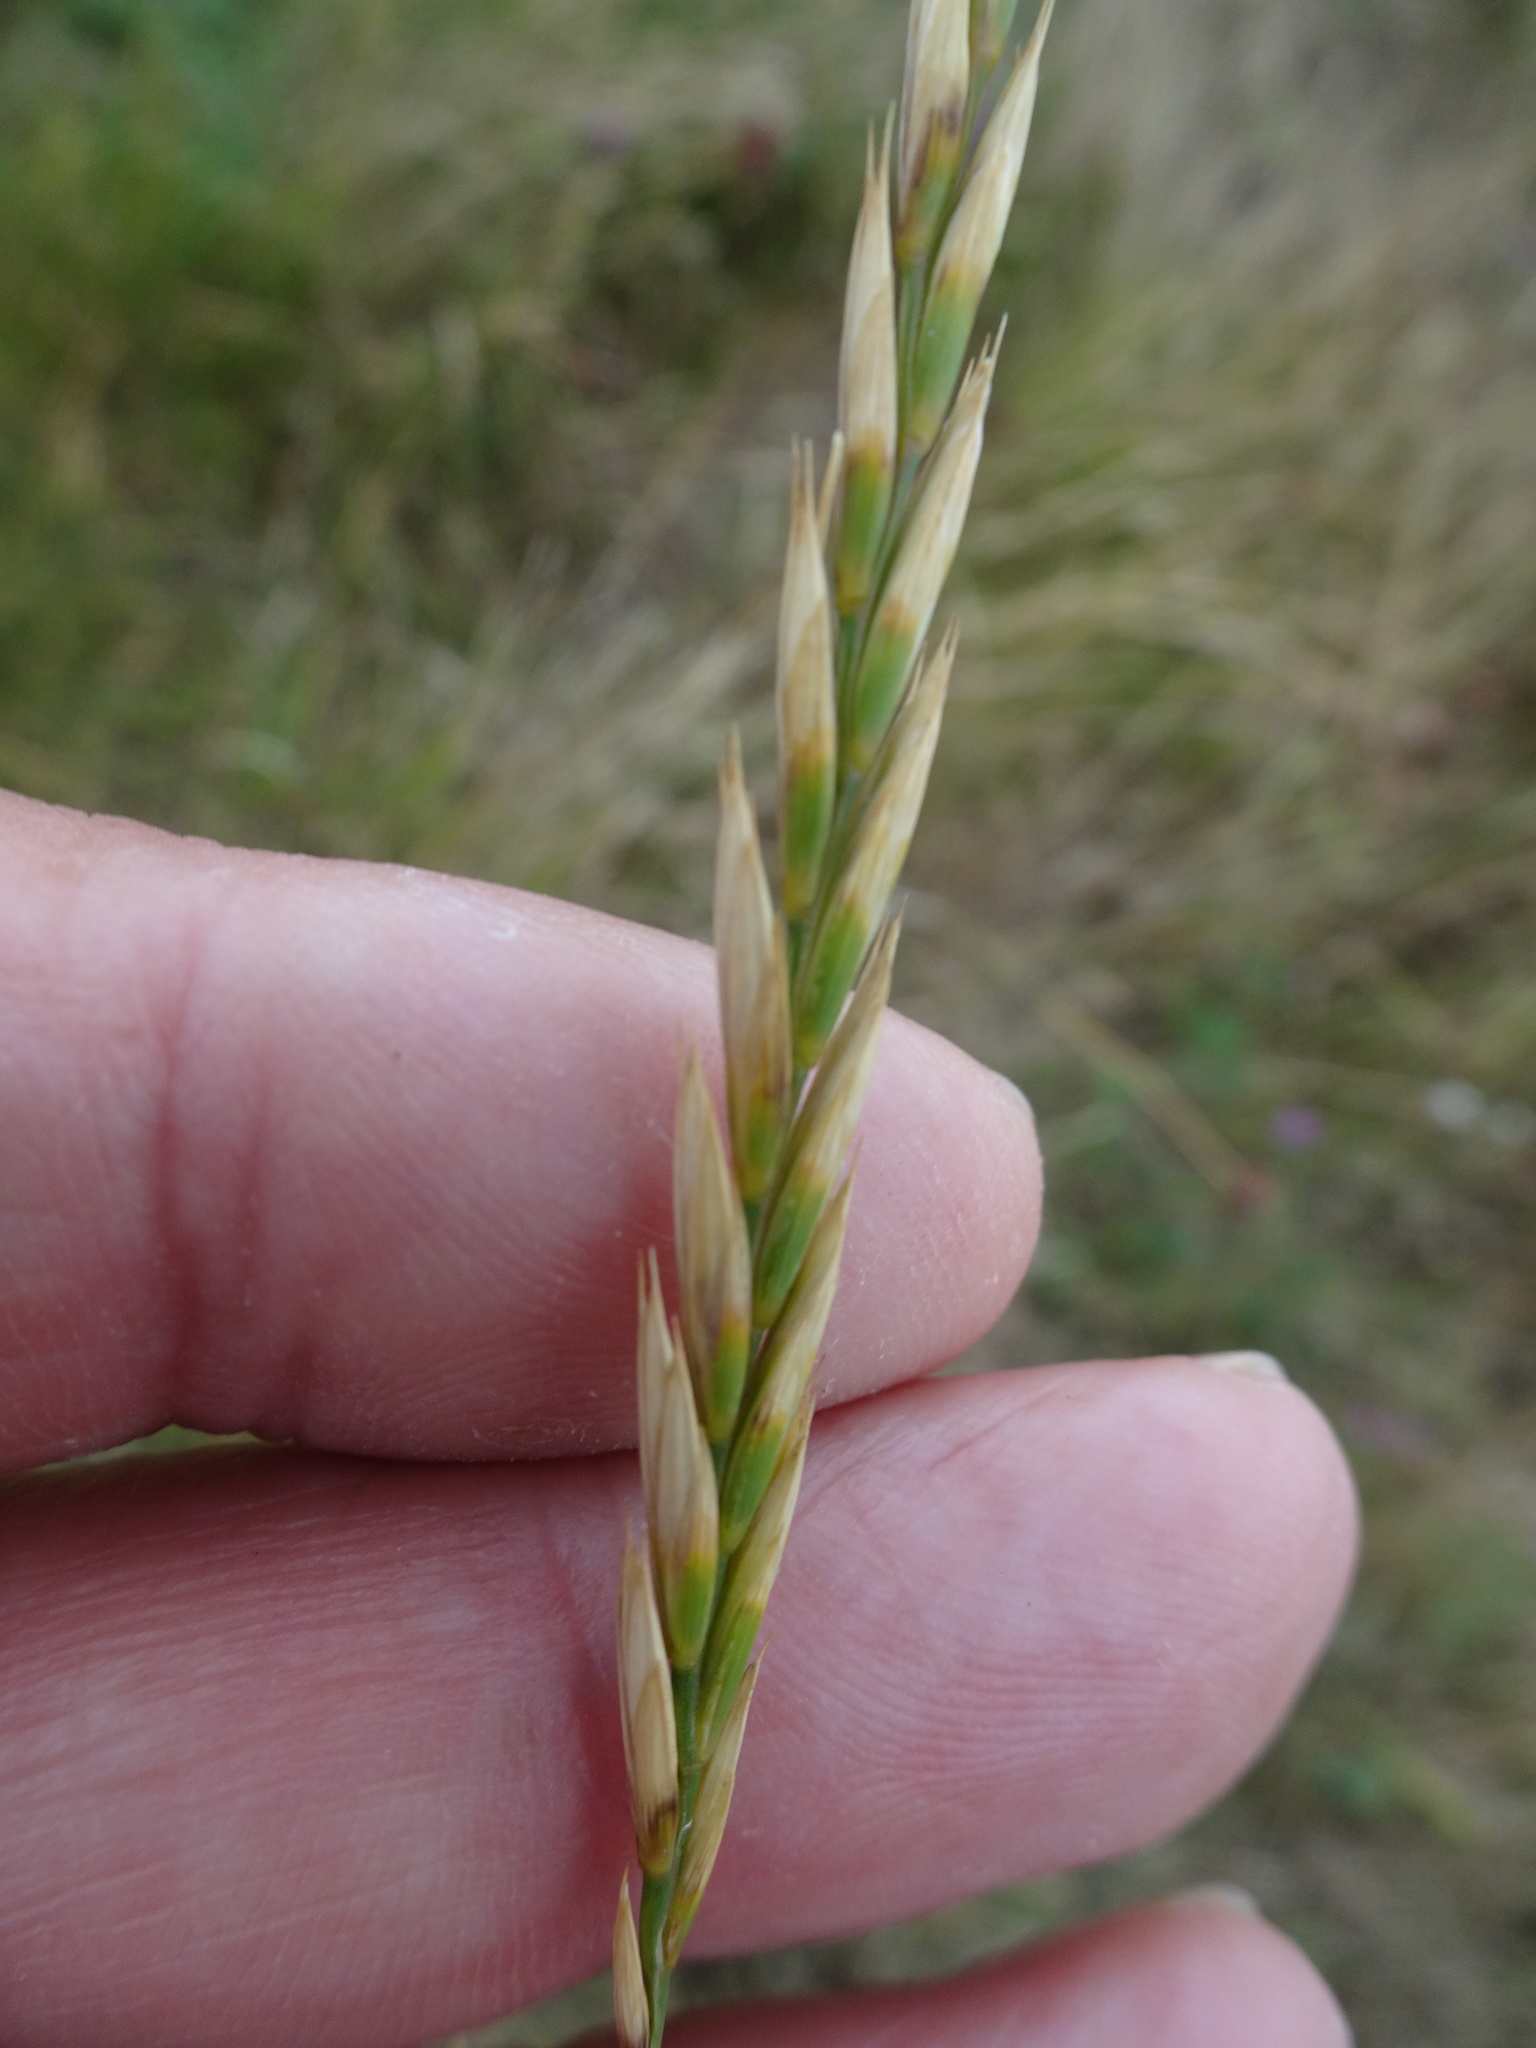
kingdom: Plantae
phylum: Tracheophyta
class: Liliopsida
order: Poales
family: Poaceae
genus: Elymus
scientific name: Elymus repens
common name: Quackgrass
